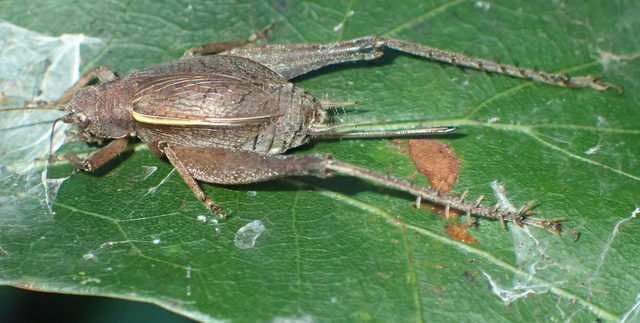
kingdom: Animalia
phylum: Arthropoda
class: Insecta
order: Orthoptera
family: Gryllidae
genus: Hapithus
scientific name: Hapithus agitator
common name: Restless bush cricket
